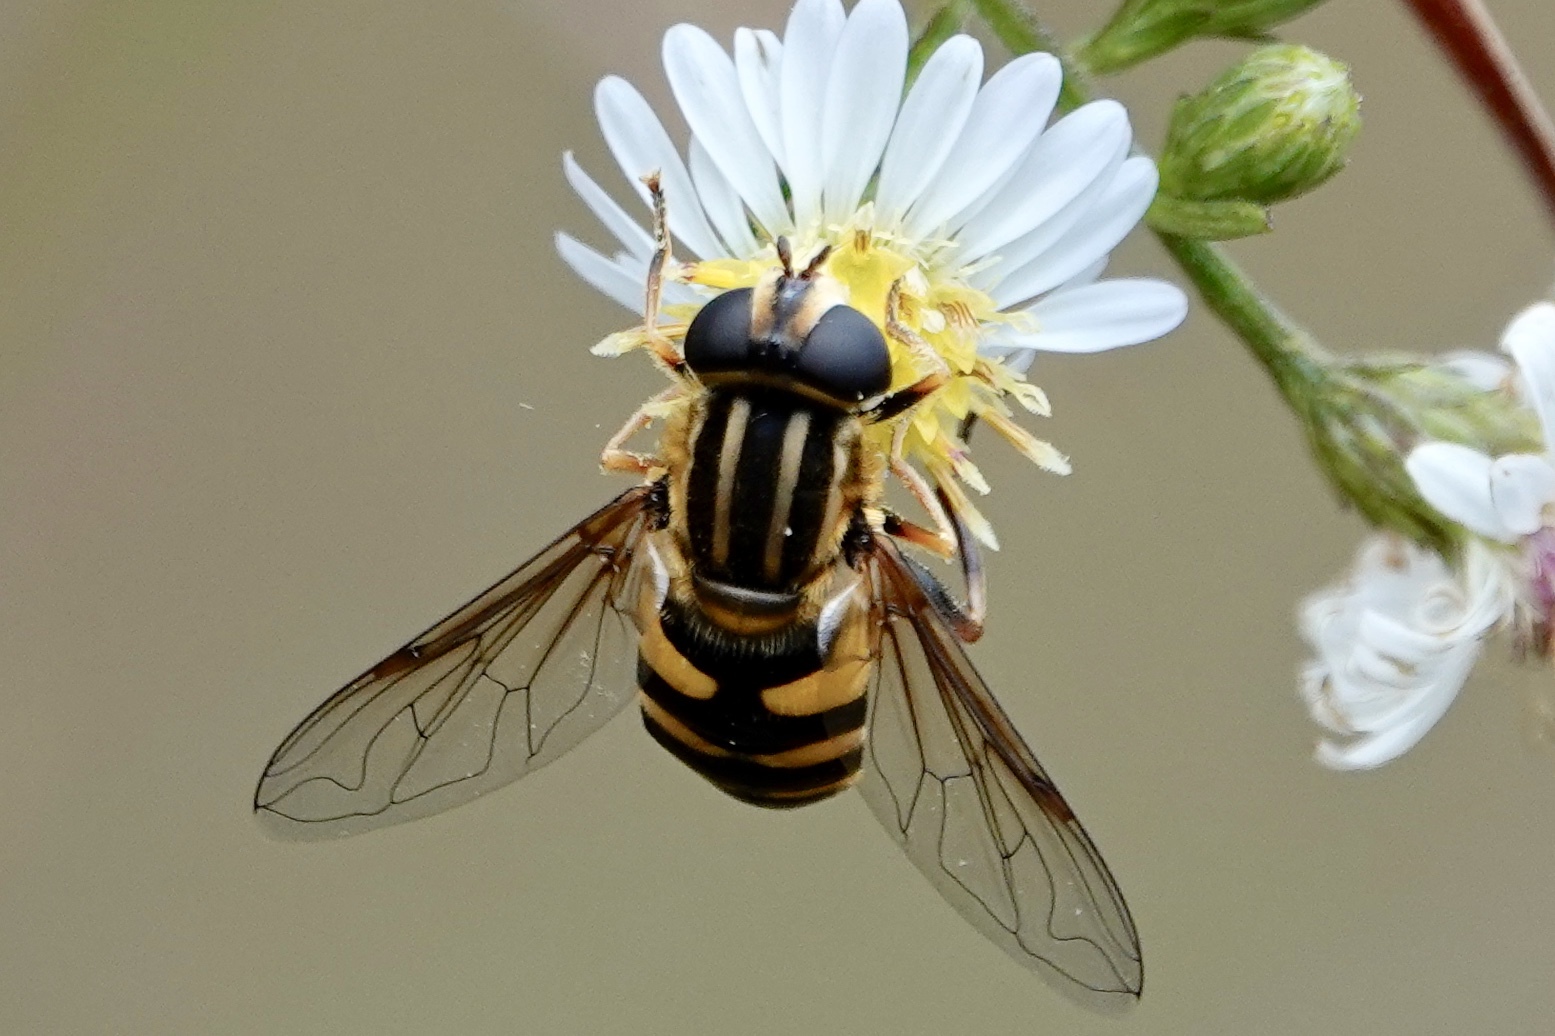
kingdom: Animalia
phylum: Arthropoda
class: Insecta
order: Diptera
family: Syrphidae
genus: Helophilus
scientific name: Helophilus fasciatus
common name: Narrow-headed marsh fly
